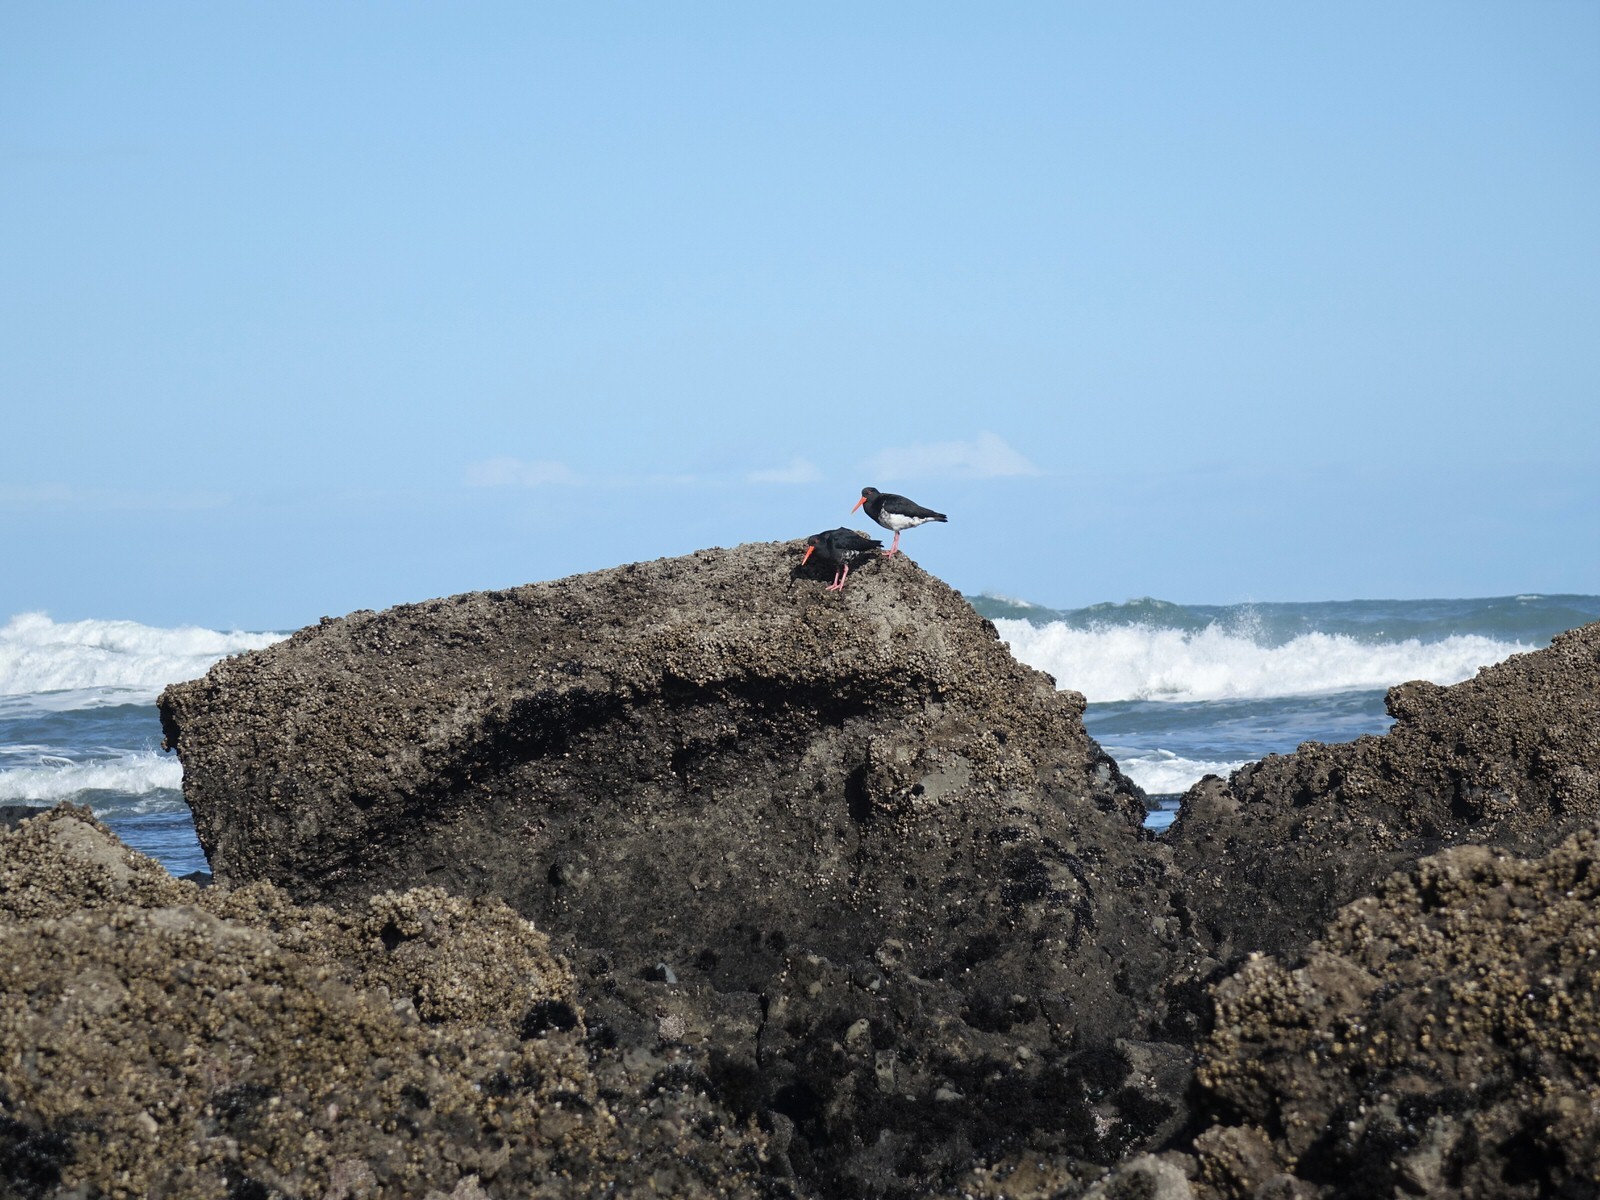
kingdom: Animalia
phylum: Chordata
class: Aves
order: Charadriiformes
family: Haematopodidae
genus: Haematopus
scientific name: Haematopus unicolor
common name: Variable oystercatcher
